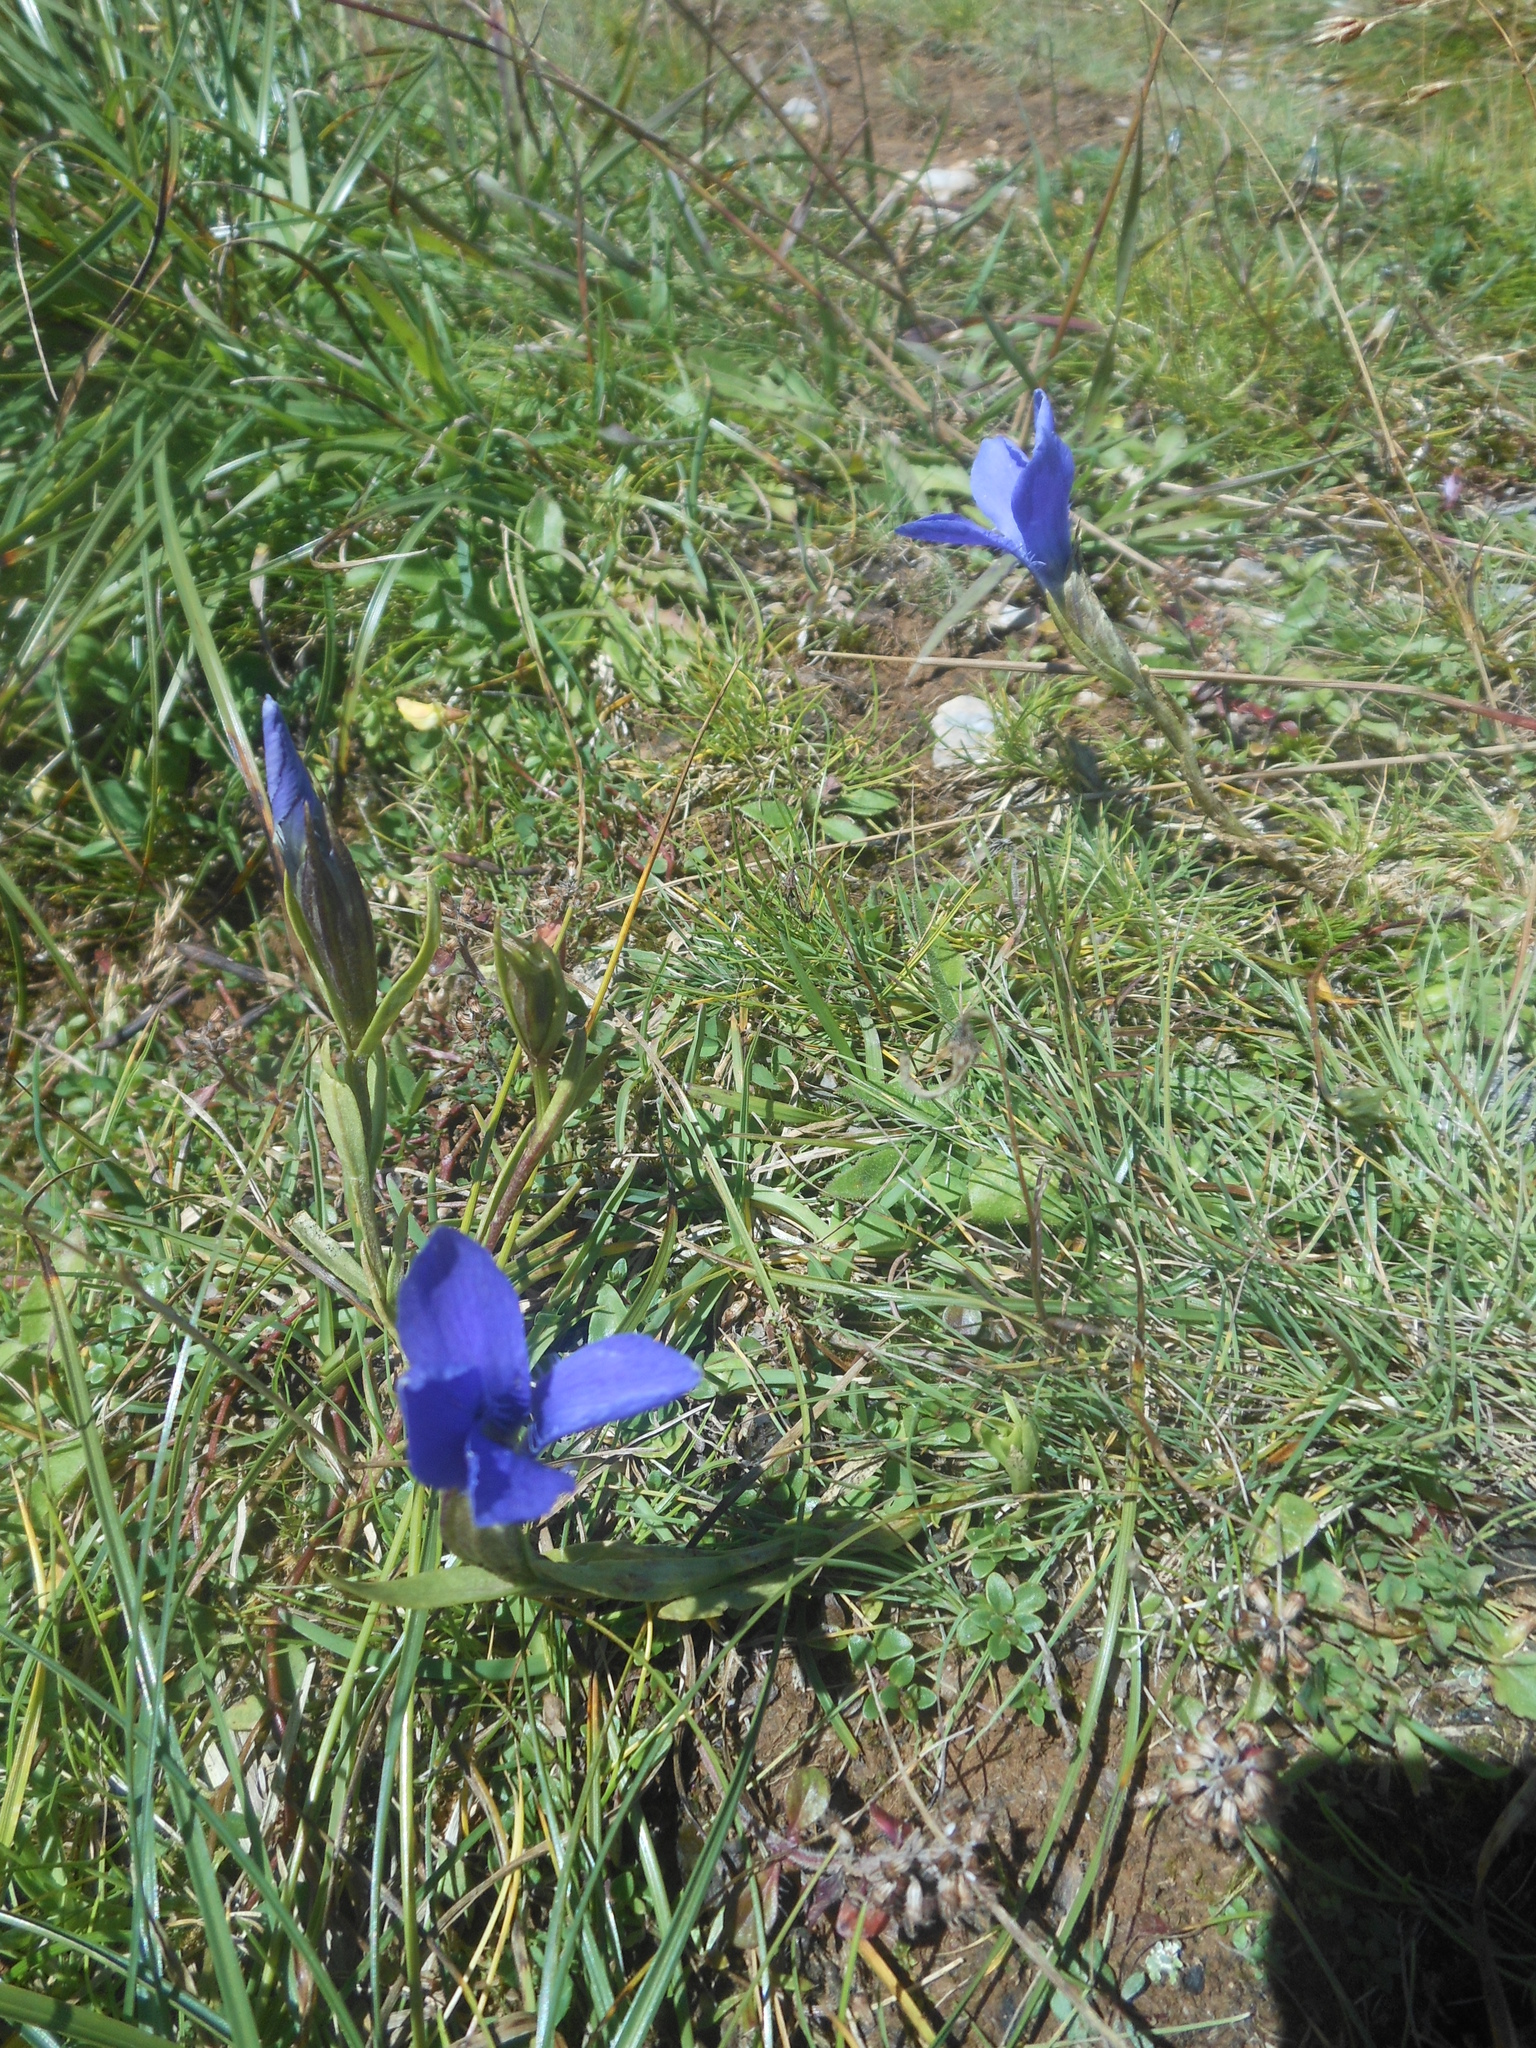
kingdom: Plantae
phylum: Tracheophyta
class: Magnoliopsida
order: Gentianales
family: Gentianaceae
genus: Gentianopsis
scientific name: Gentianopsis ciliata
